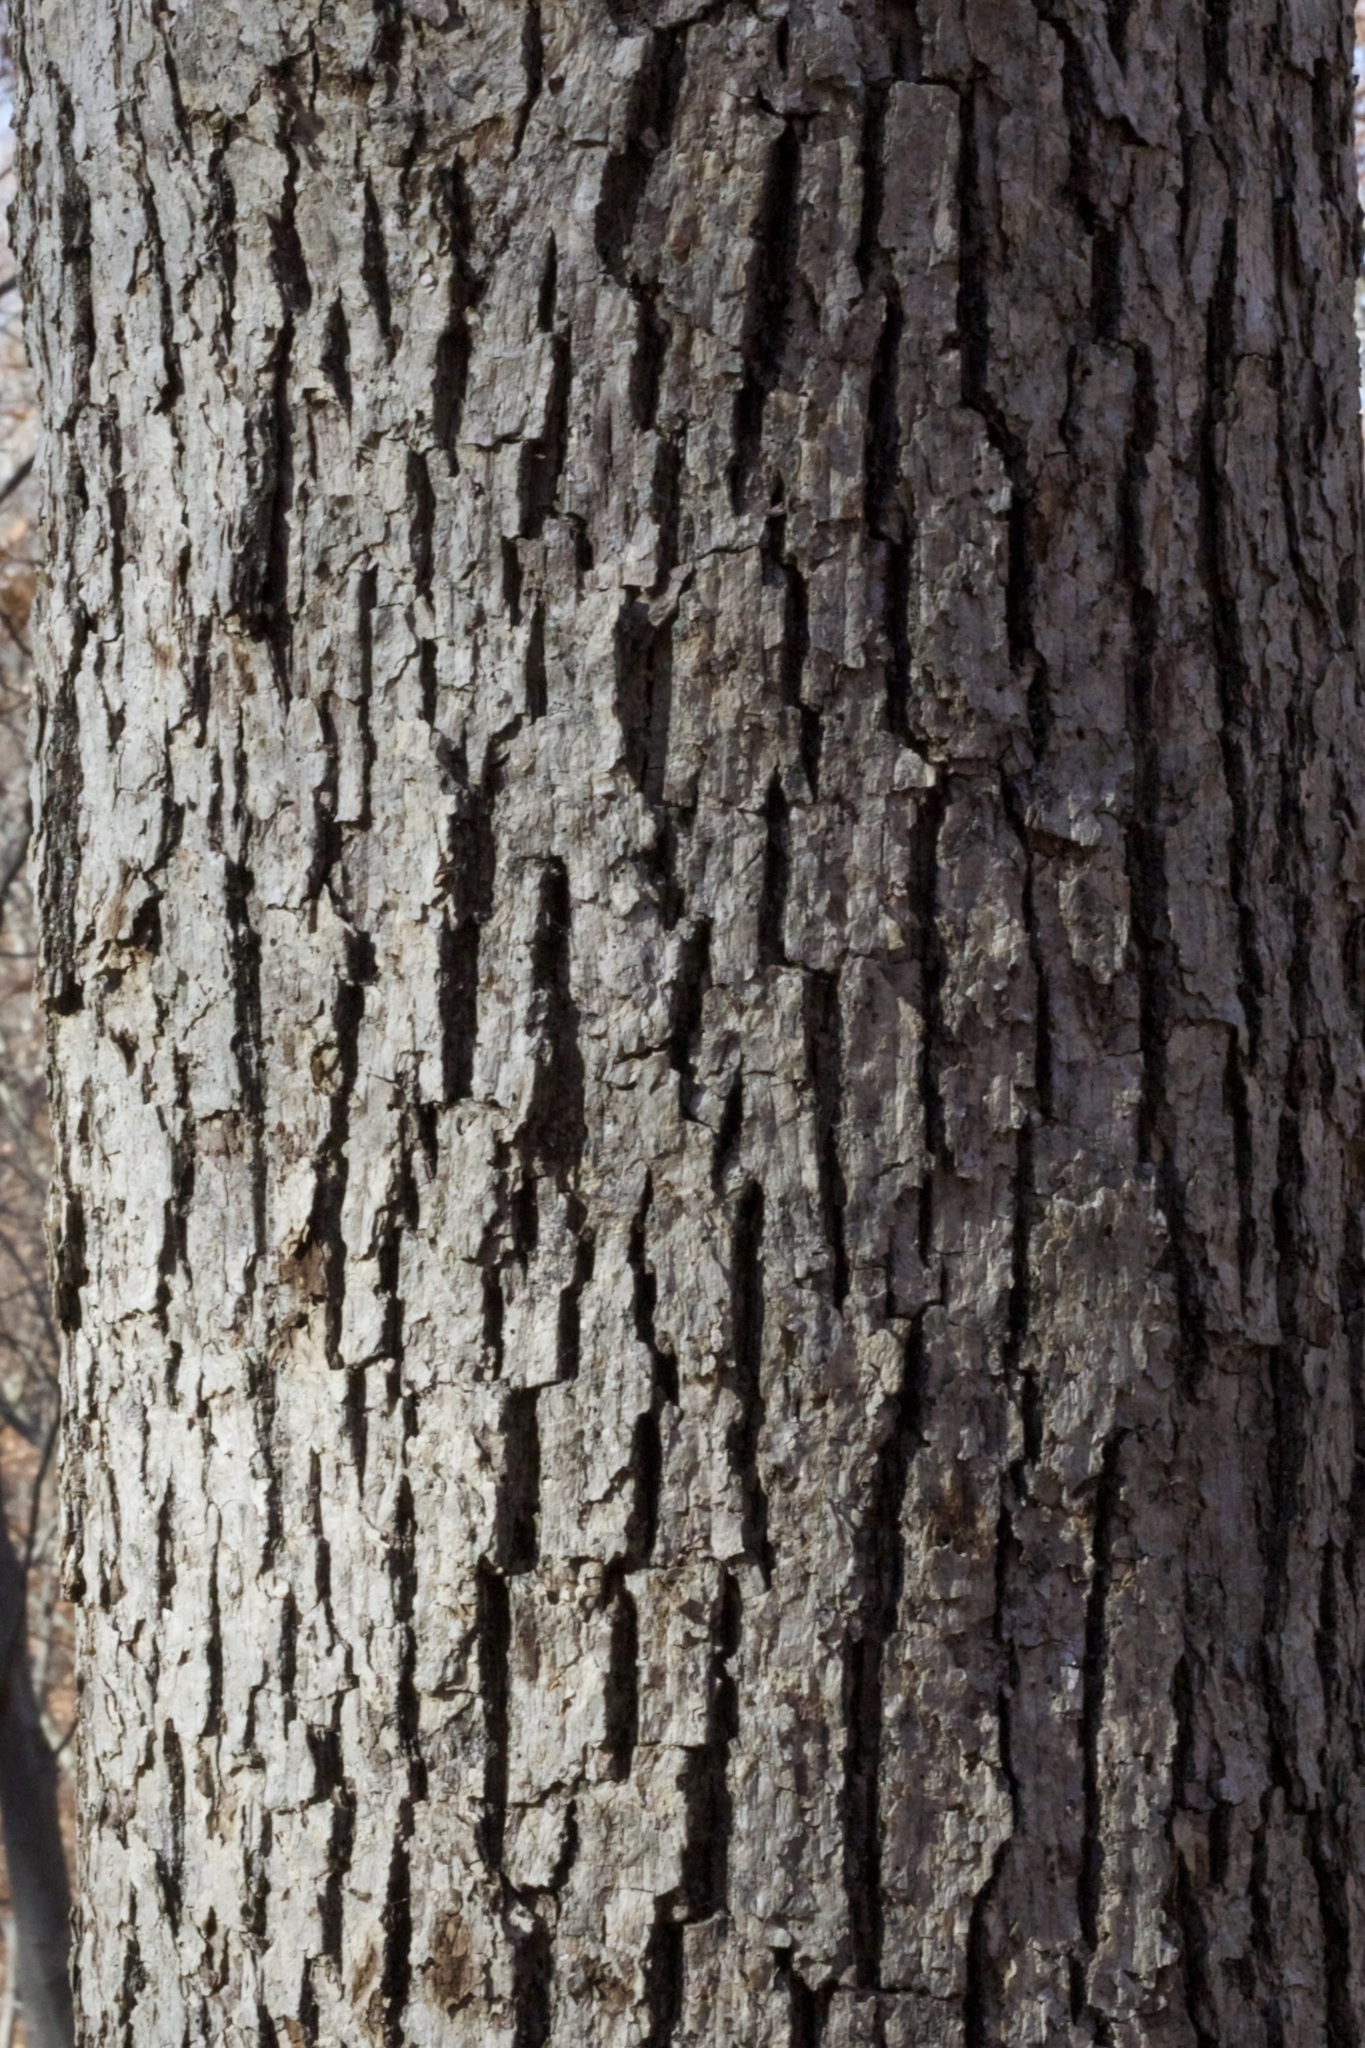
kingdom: Plantae
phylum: Tracheophyta
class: Magnoliopsida
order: Fagales
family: Fagaceae
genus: Quercus
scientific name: Quercus alba
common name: White oak
